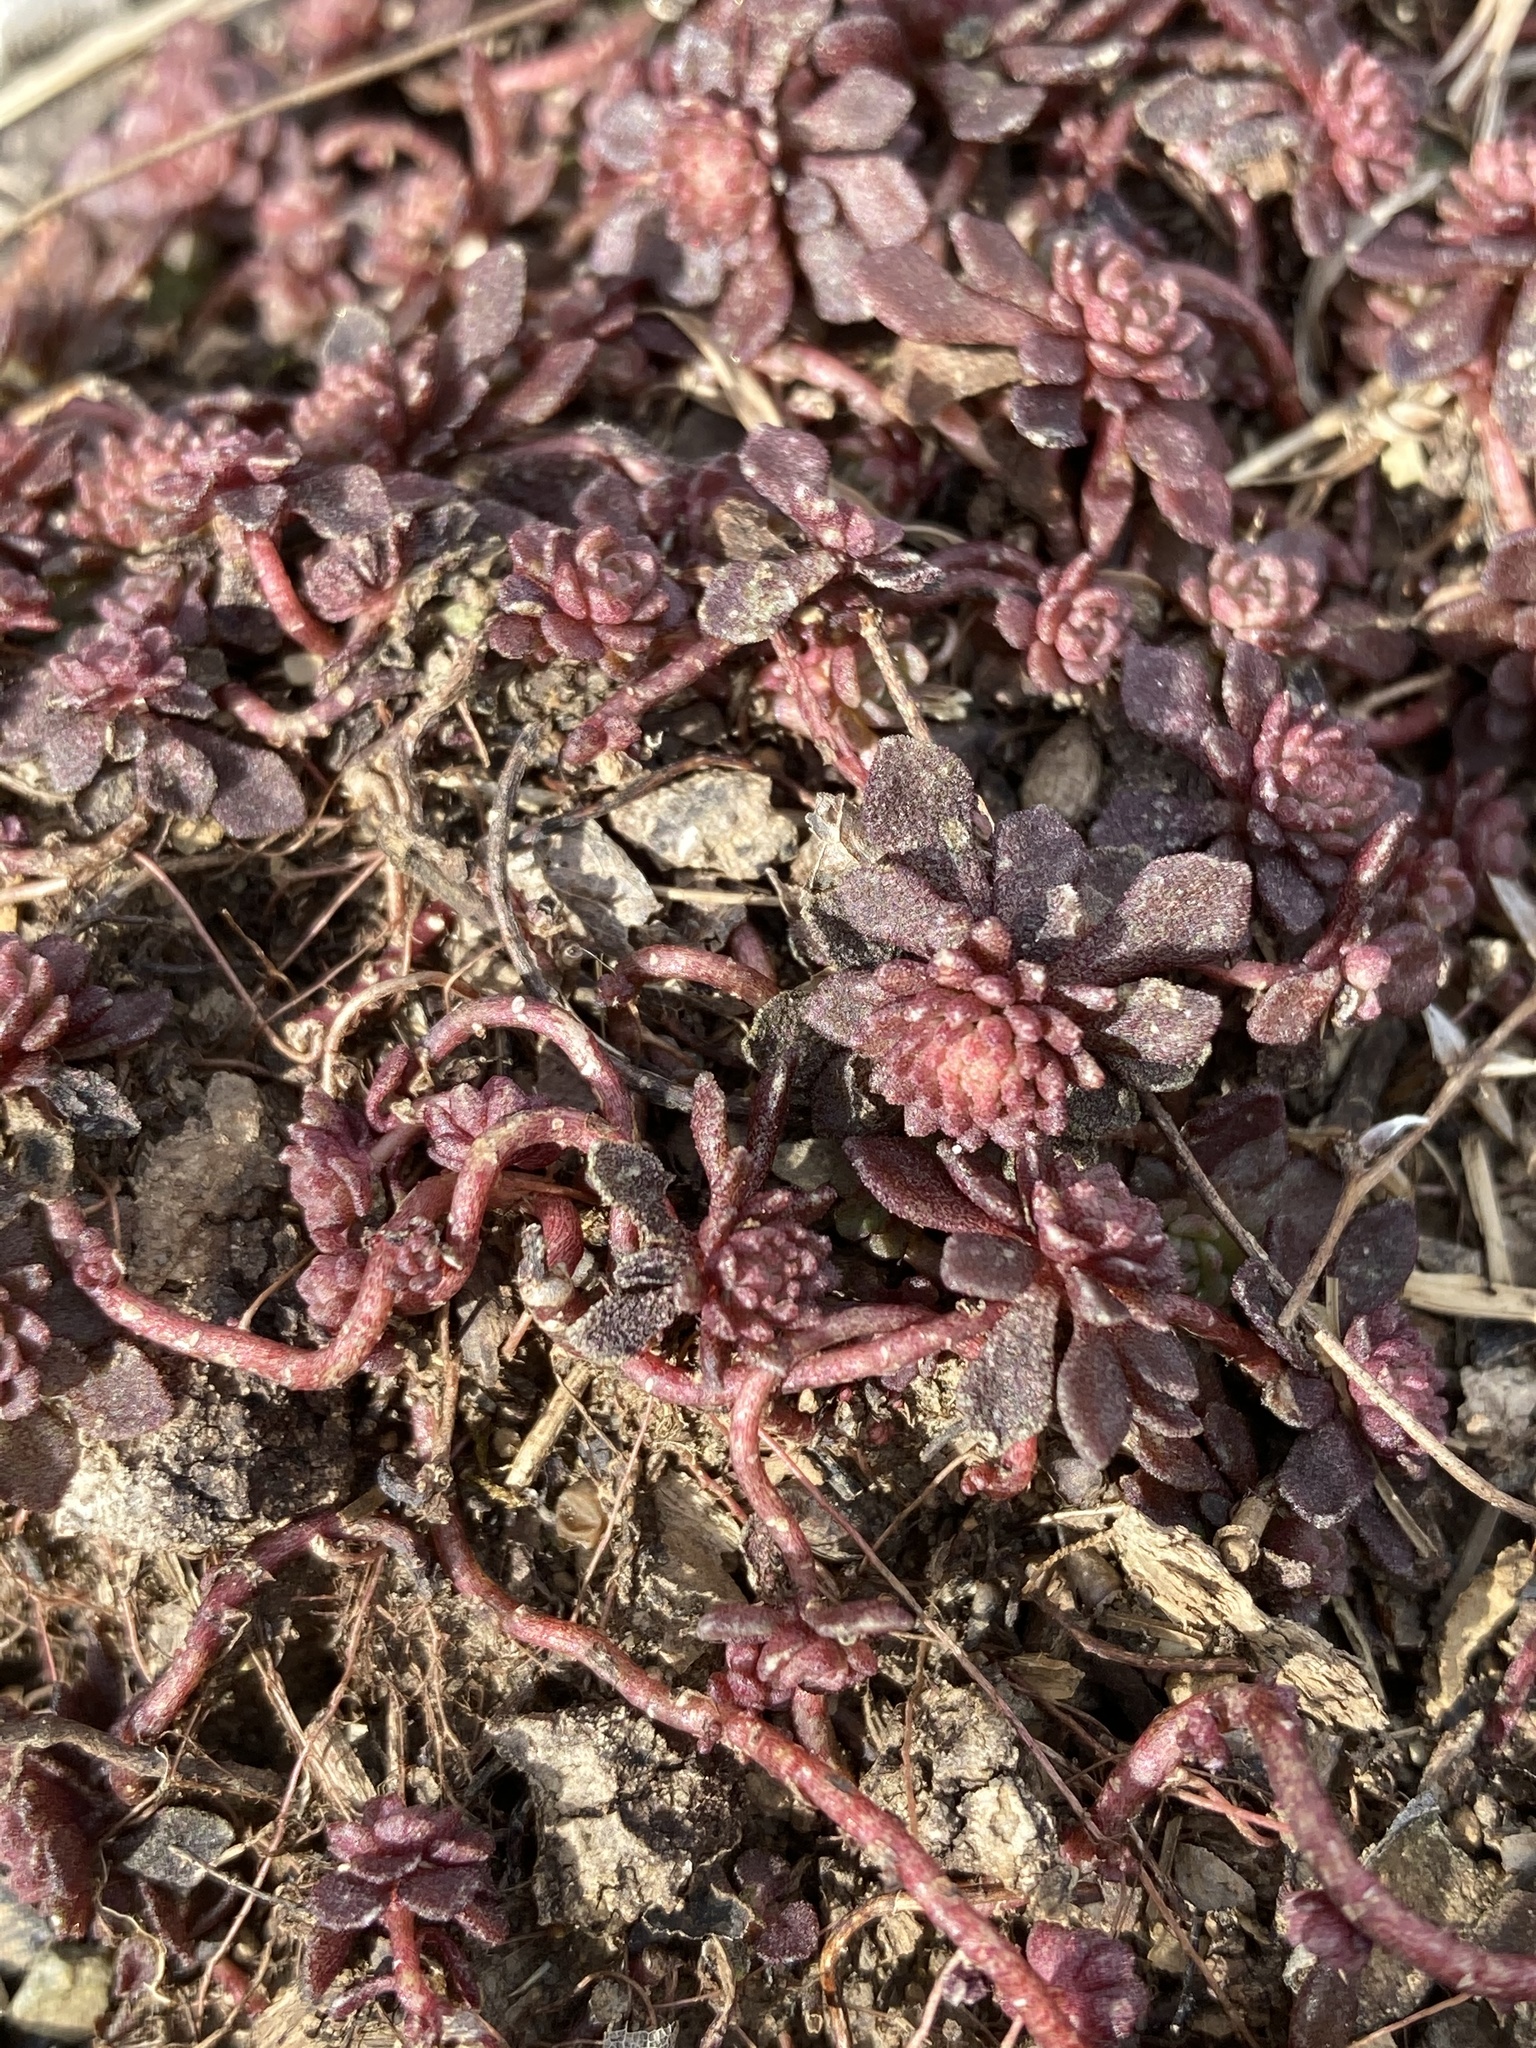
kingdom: Plantae
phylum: Tracheophyta
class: Magnoliopsida
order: Saxifragales
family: Crassulaceae
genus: Sedum
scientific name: Sedum glaucophyllum
